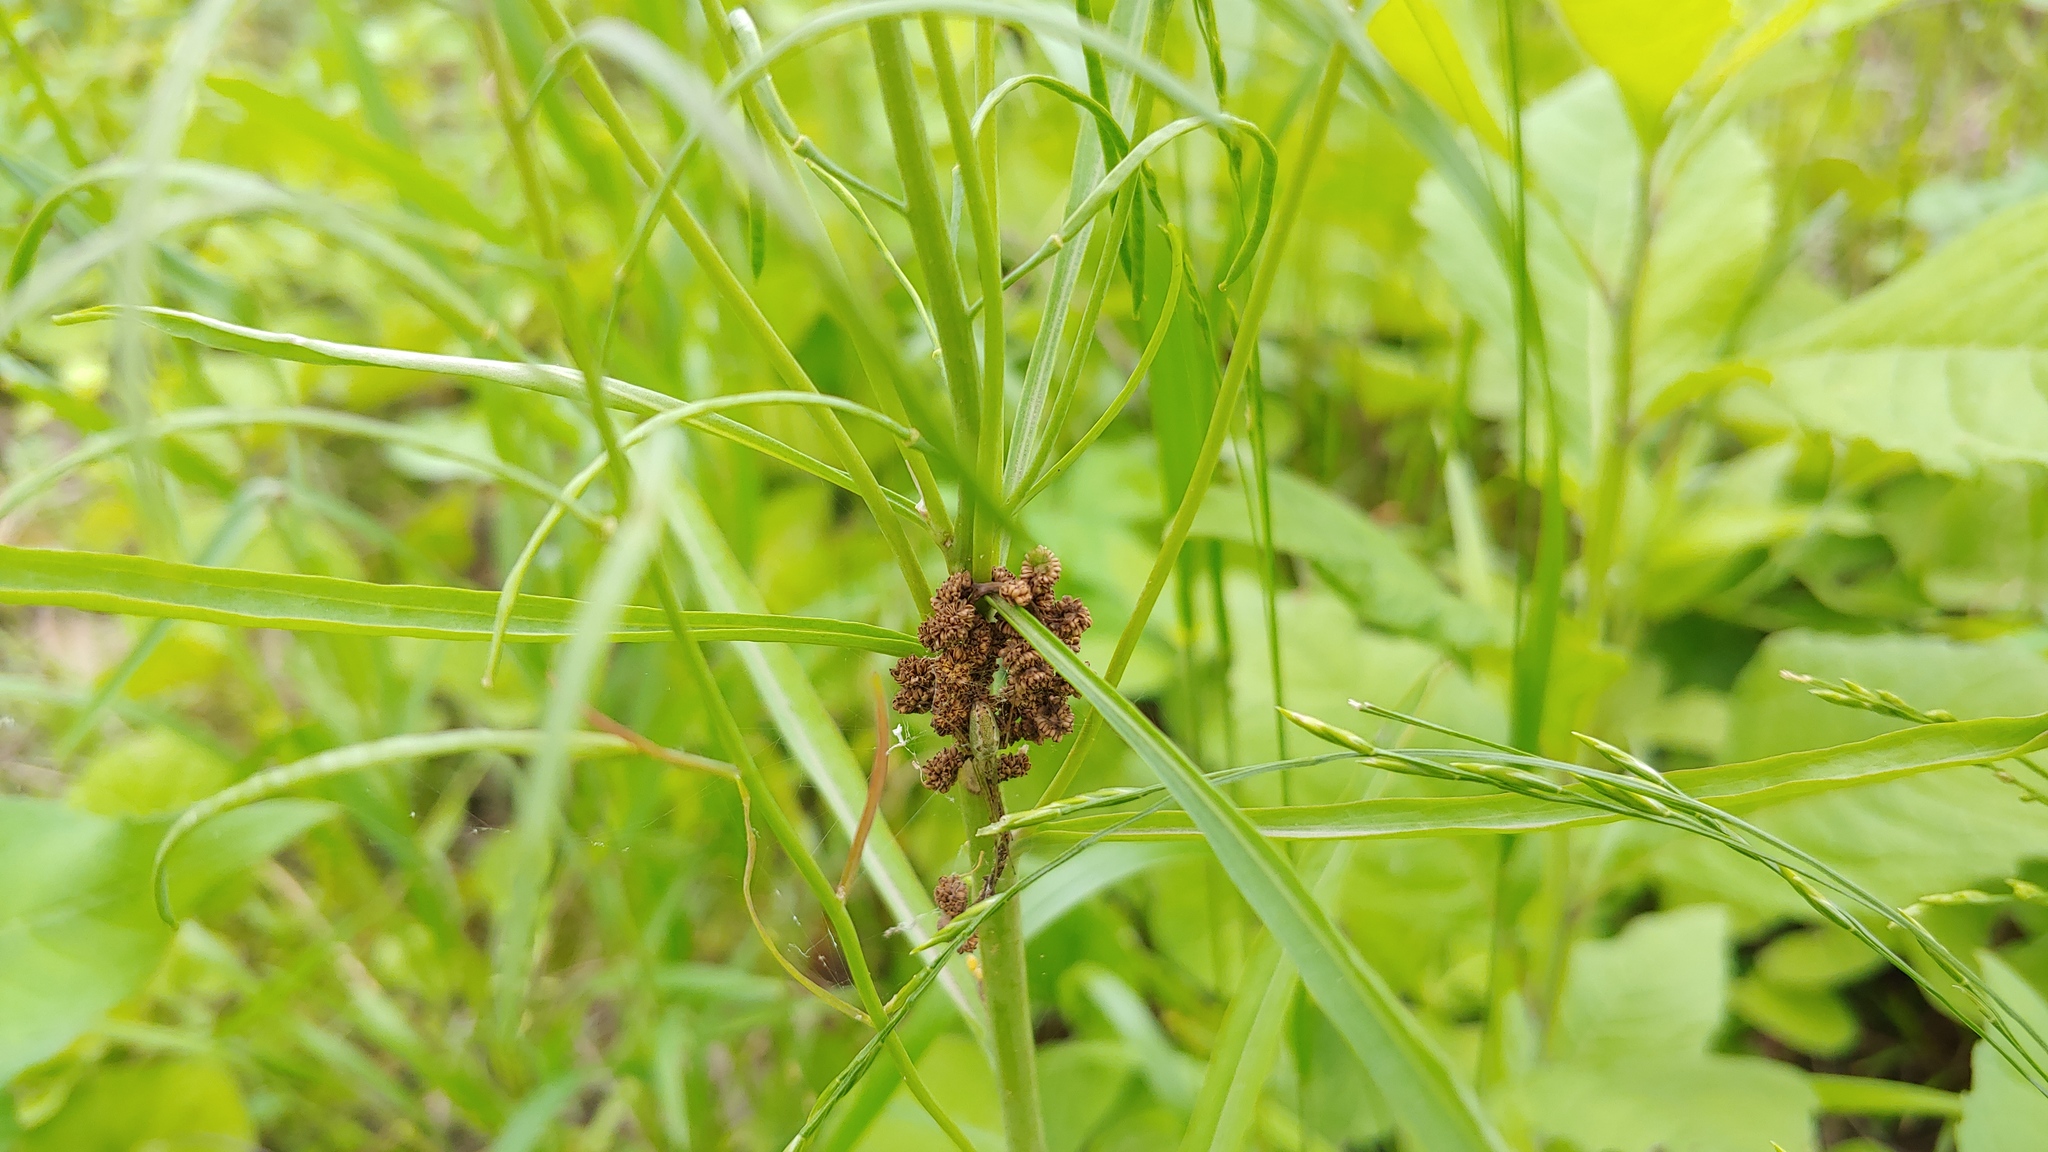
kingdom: Plantae
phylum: Tracheophyta
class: Magnoliopsida
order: Brassicales
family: Brassicaceae
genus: Borodinia
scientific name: Borodinia laevigata
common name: Smooth rockcress
